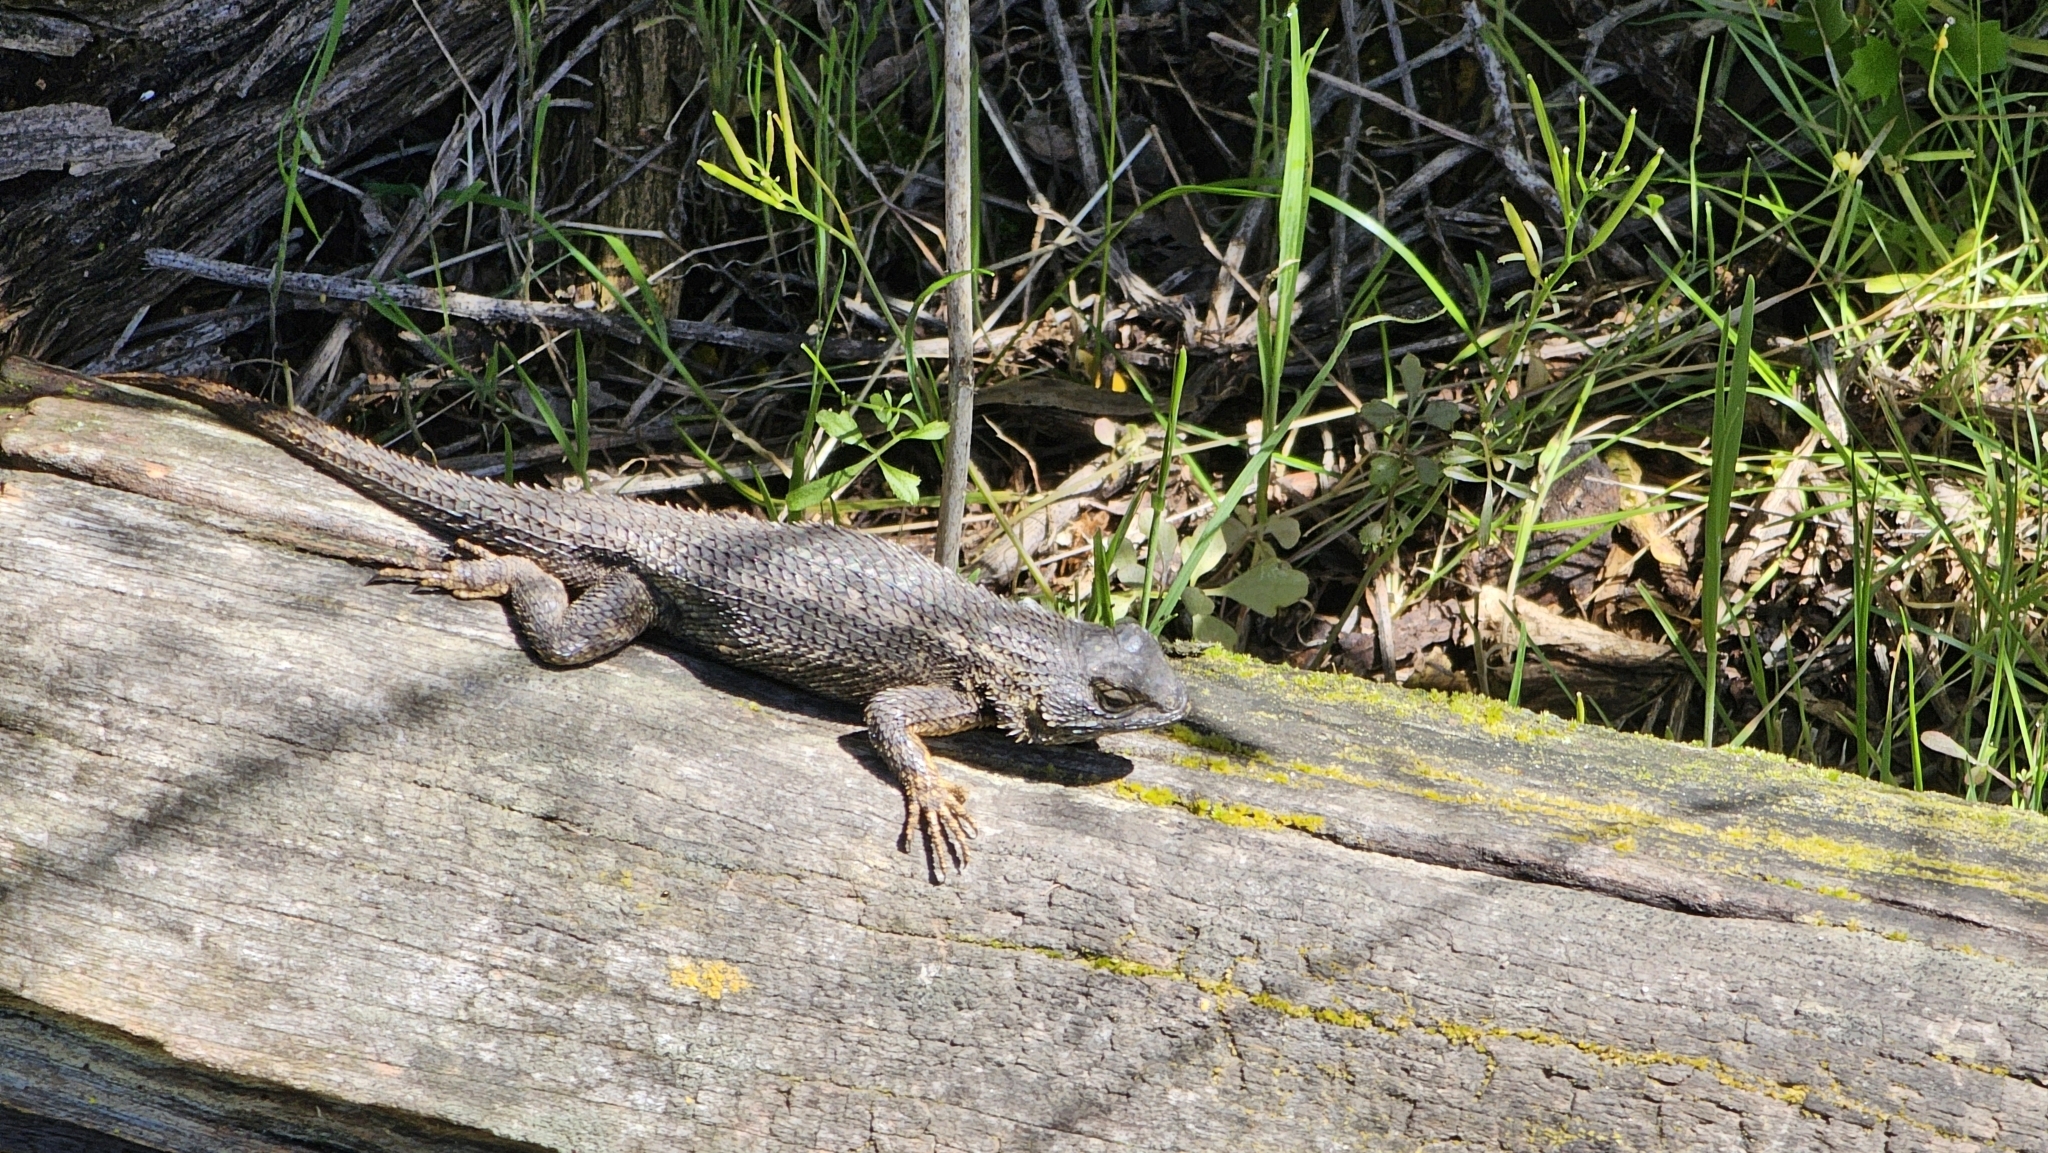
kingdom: Animalia
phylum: Chordata
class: Squamata
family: Phrynosomatidae
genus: Sceloporus
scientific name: Sceloporus occidentalis
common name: Western fence lizard
